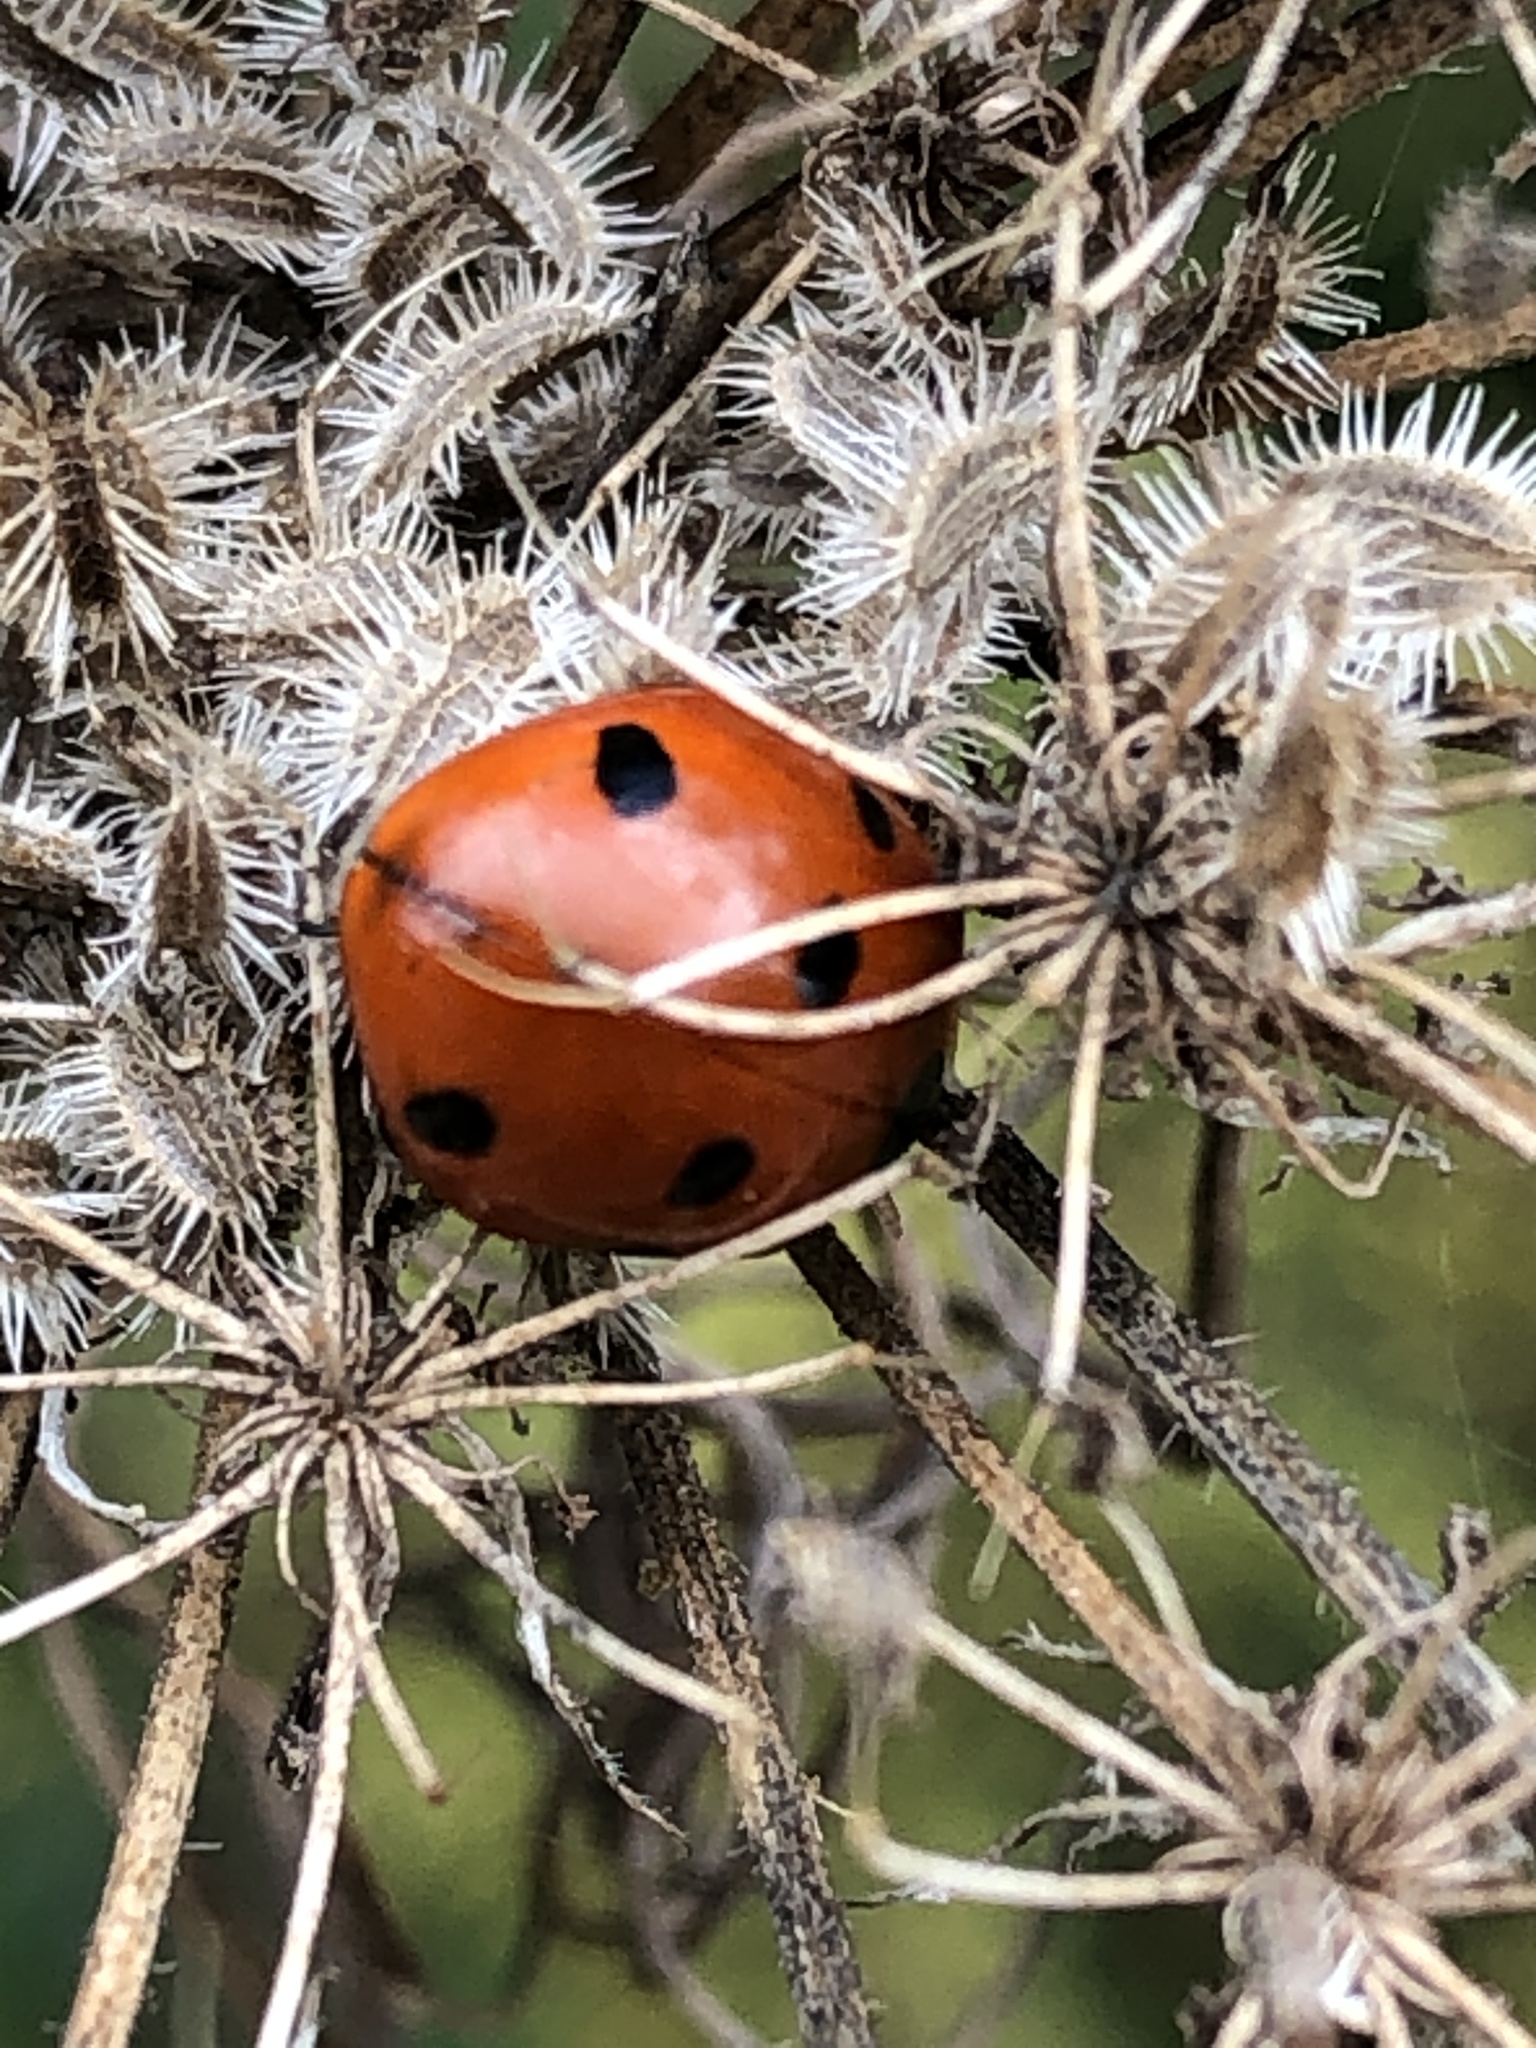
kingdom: Animalia
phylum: Arthropoda
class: Insecta
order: Coleoptera
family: Coccinellidae
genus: Coccinella
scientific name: Coccinella septempunctata
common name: Sevenspotted lady beetle
